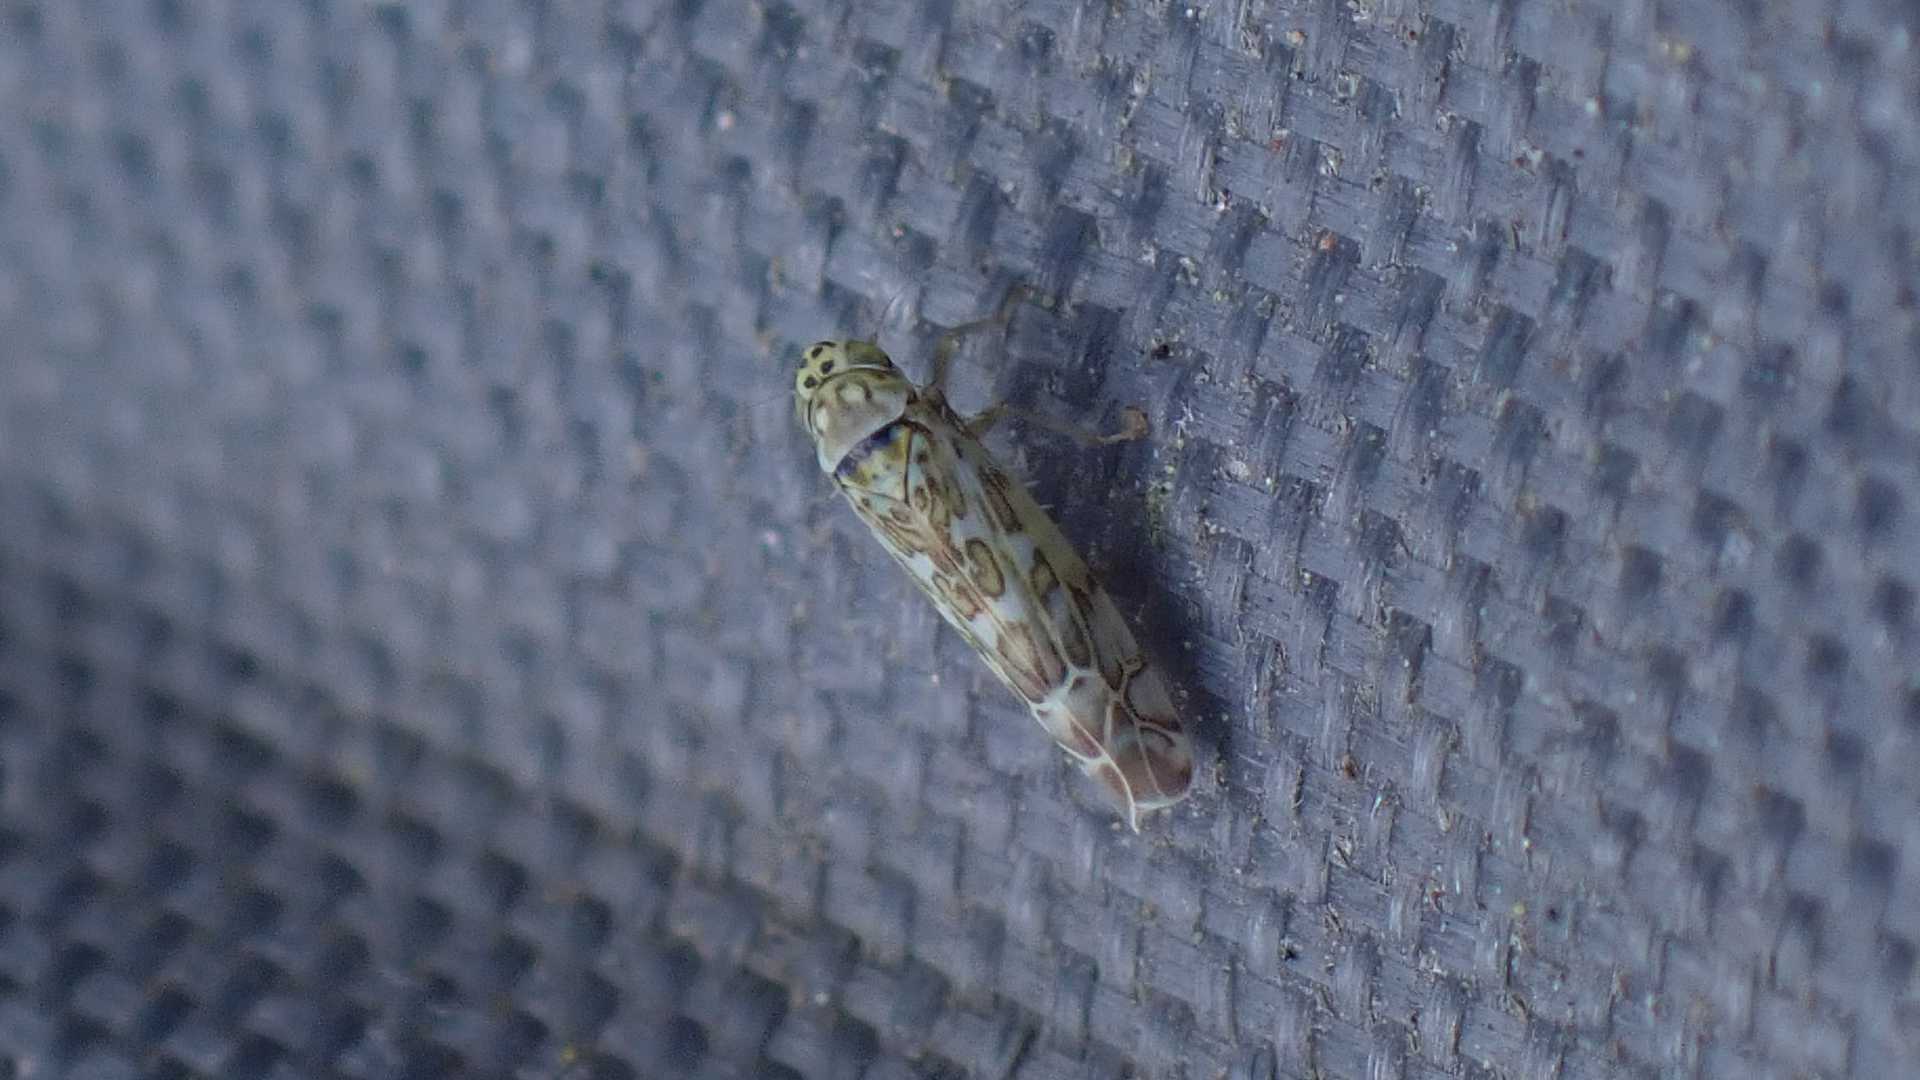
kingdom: Animalia
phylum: Arthropoda
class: Insecta
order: Hemiptera
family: Cicadellidae
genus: Eupteryx
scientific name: Eupteryx decemnotata
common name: Ligurian leafhopper
